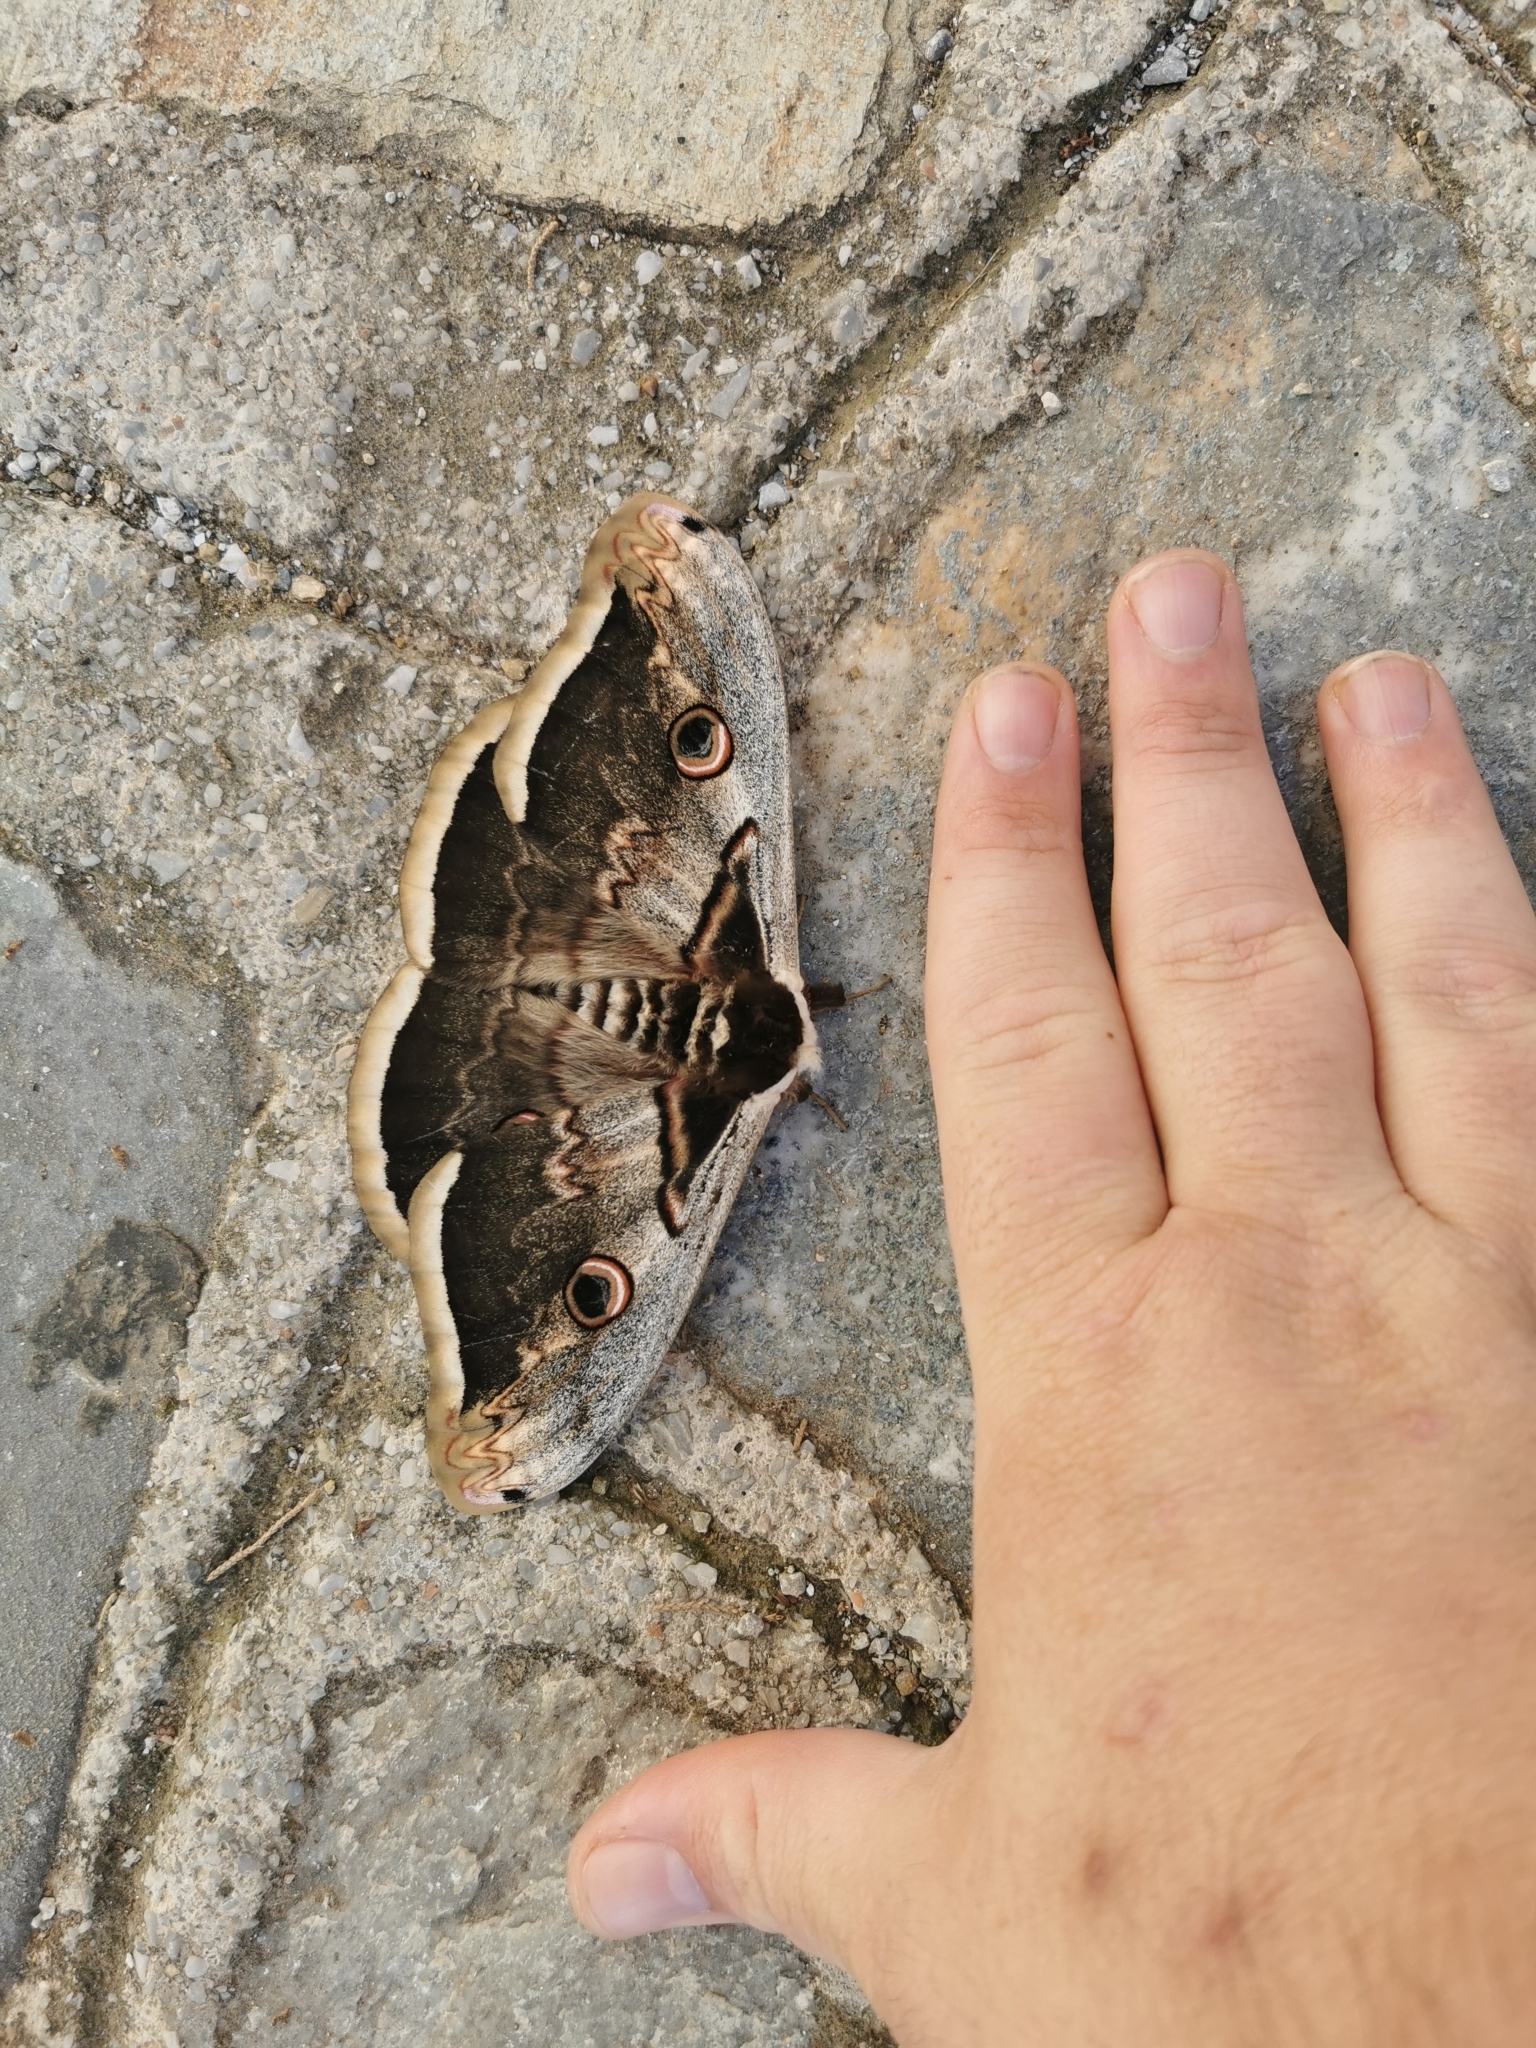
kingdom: Animalia
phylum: Arthropoda
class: Insecta
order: Lepidoptera
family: Saturniidae
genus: Saturnia
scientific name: Saturnia pyri
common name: Great peacock moth
